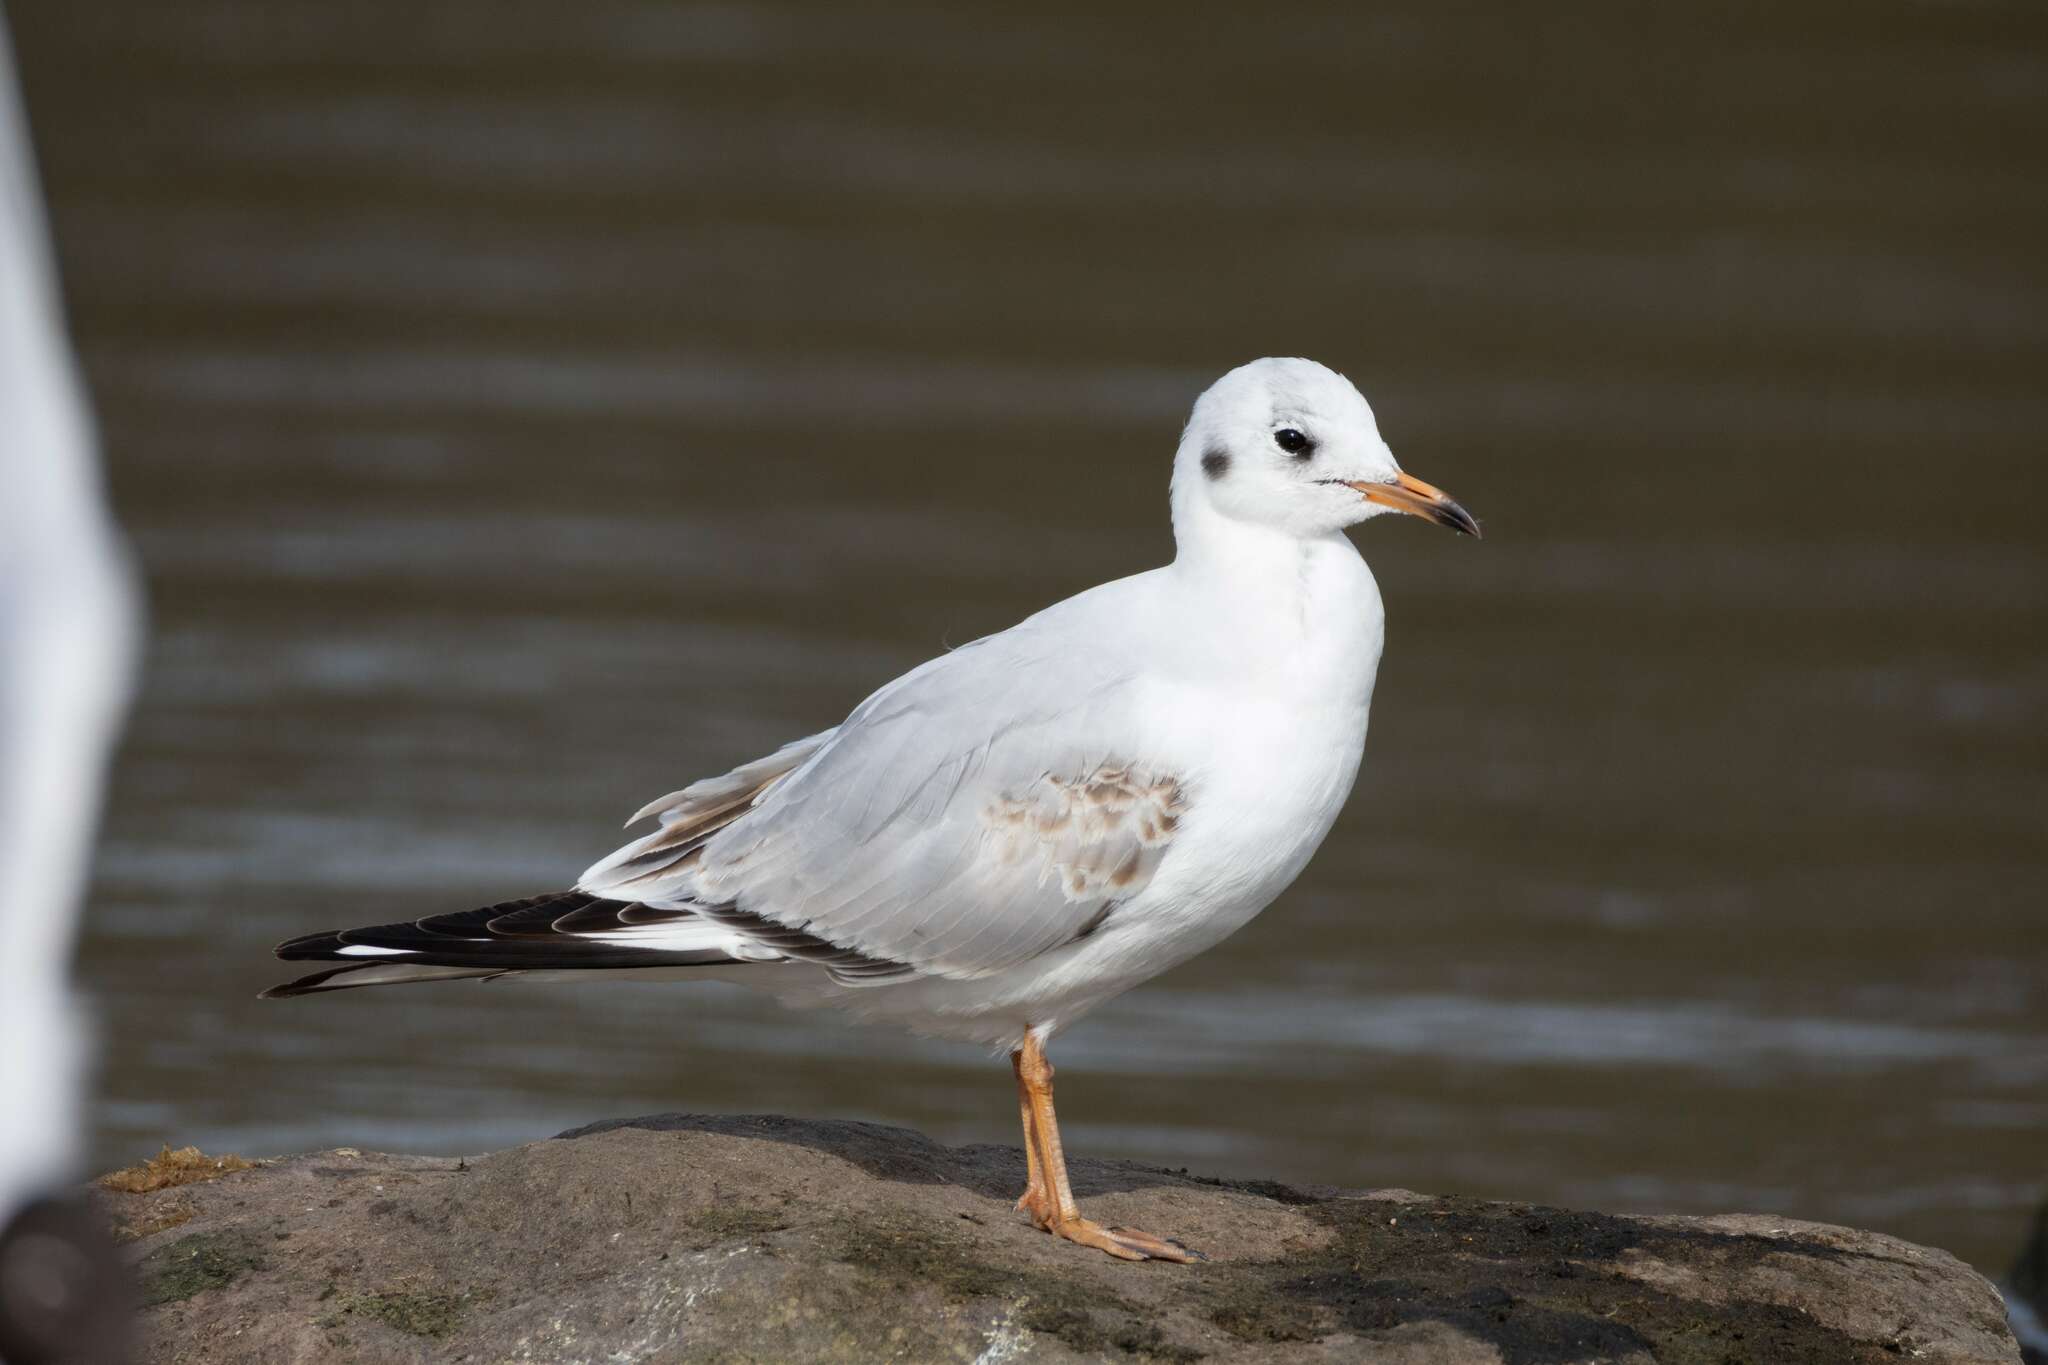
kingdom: Animalia
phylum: Chordata
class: Aves
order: Charadriiformes
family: Laridae
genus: Chroicocephalus
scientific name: Chroicocephalus ridibundus
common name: Black-headed gull
